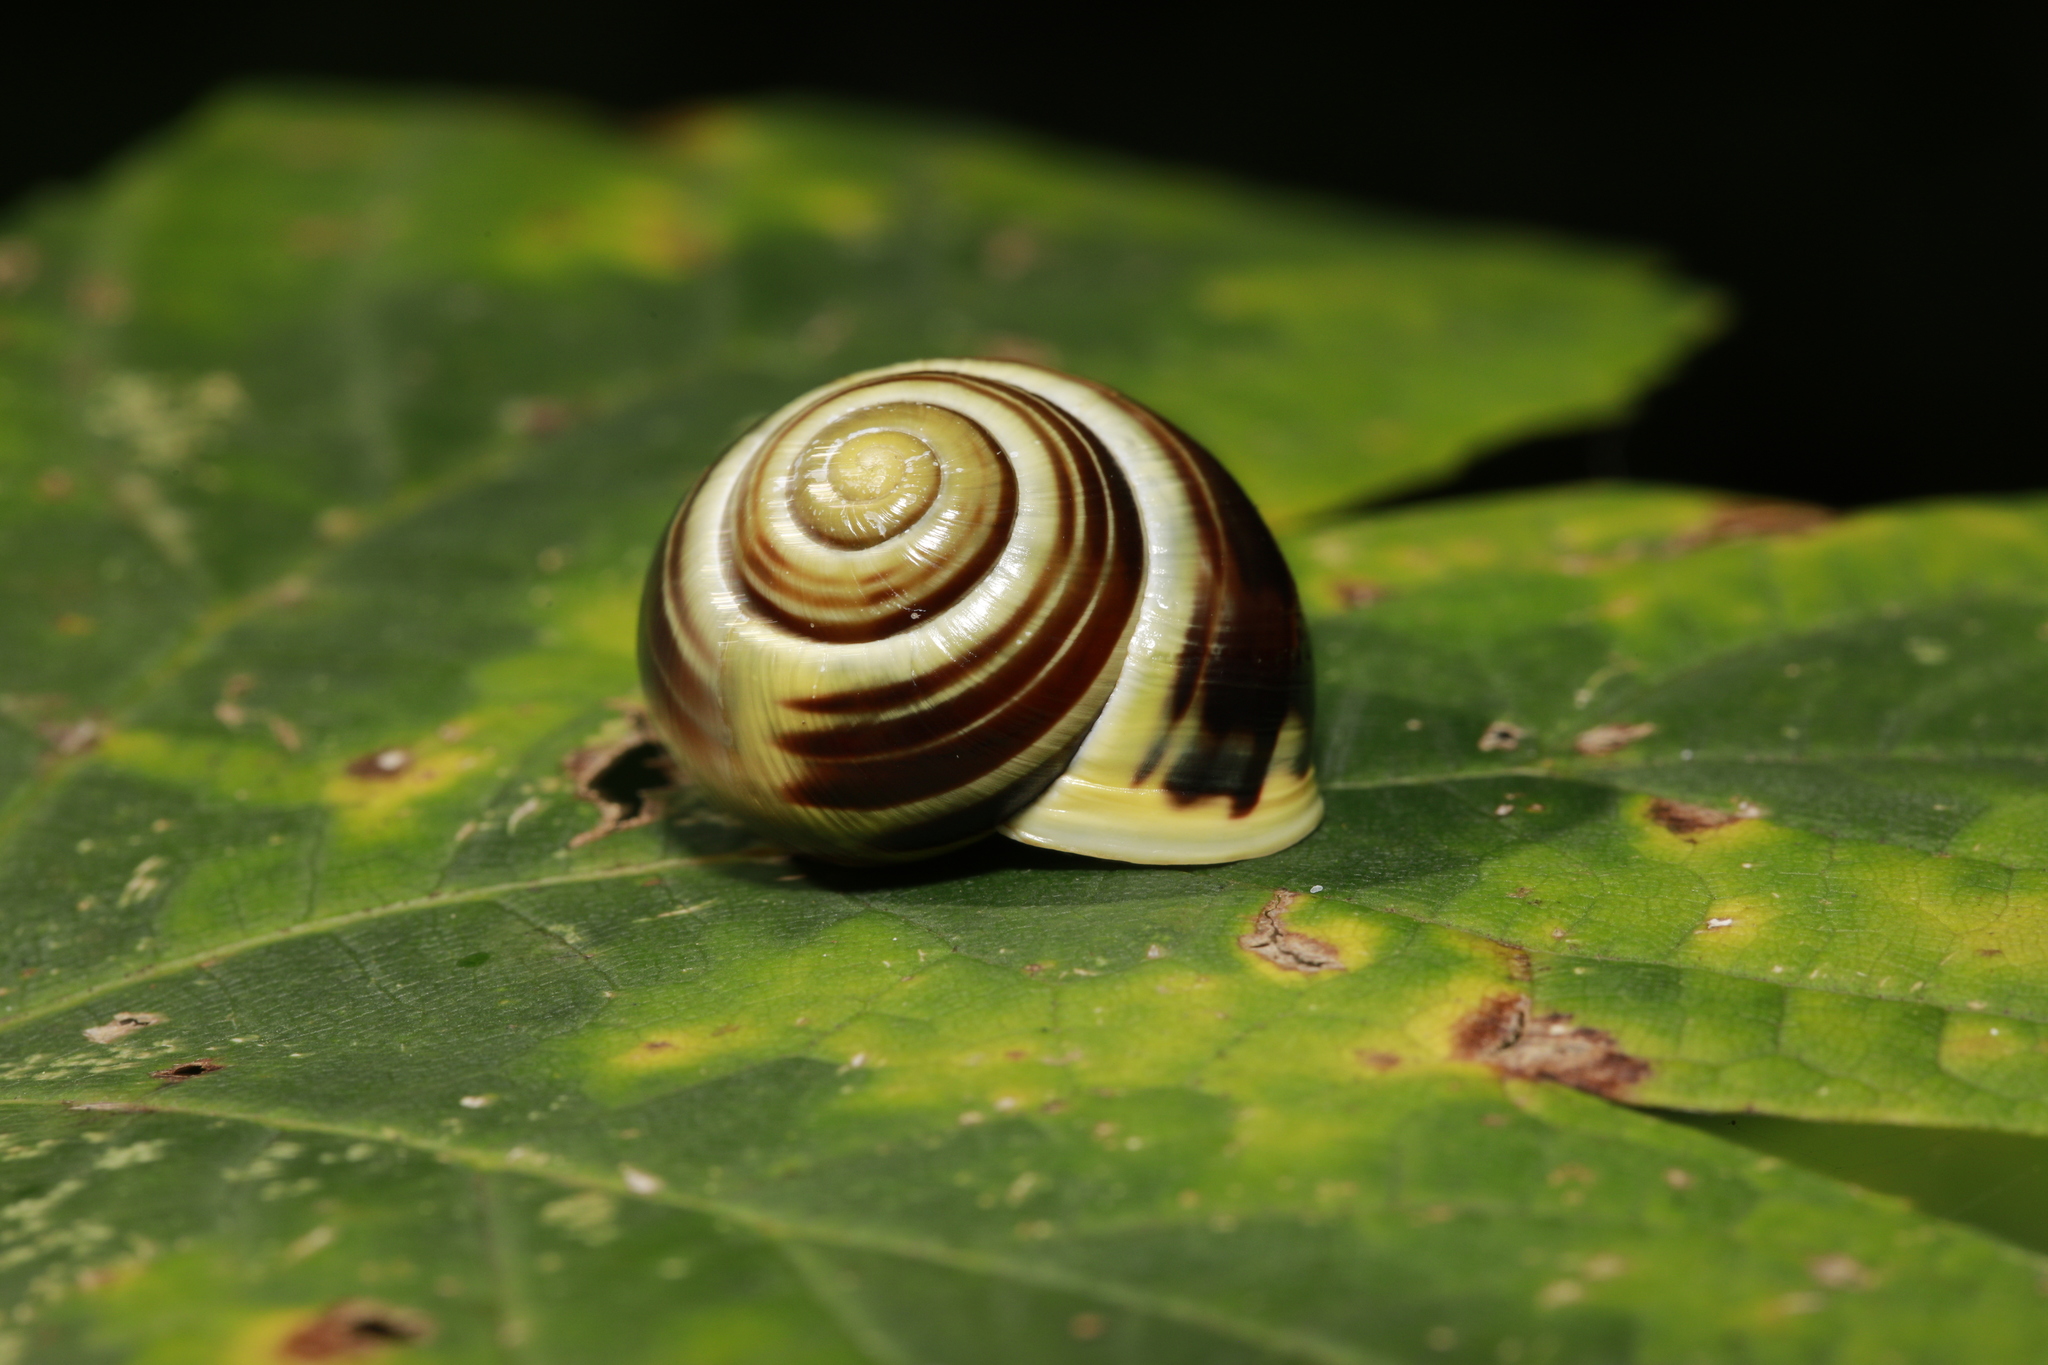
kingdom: Animalia
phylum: Mollusca
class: Gastropoda
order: Stylommatophora
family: Helicidae
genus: Cepaea
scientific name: Cepaea hortensis
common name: White-lip gardensnail
